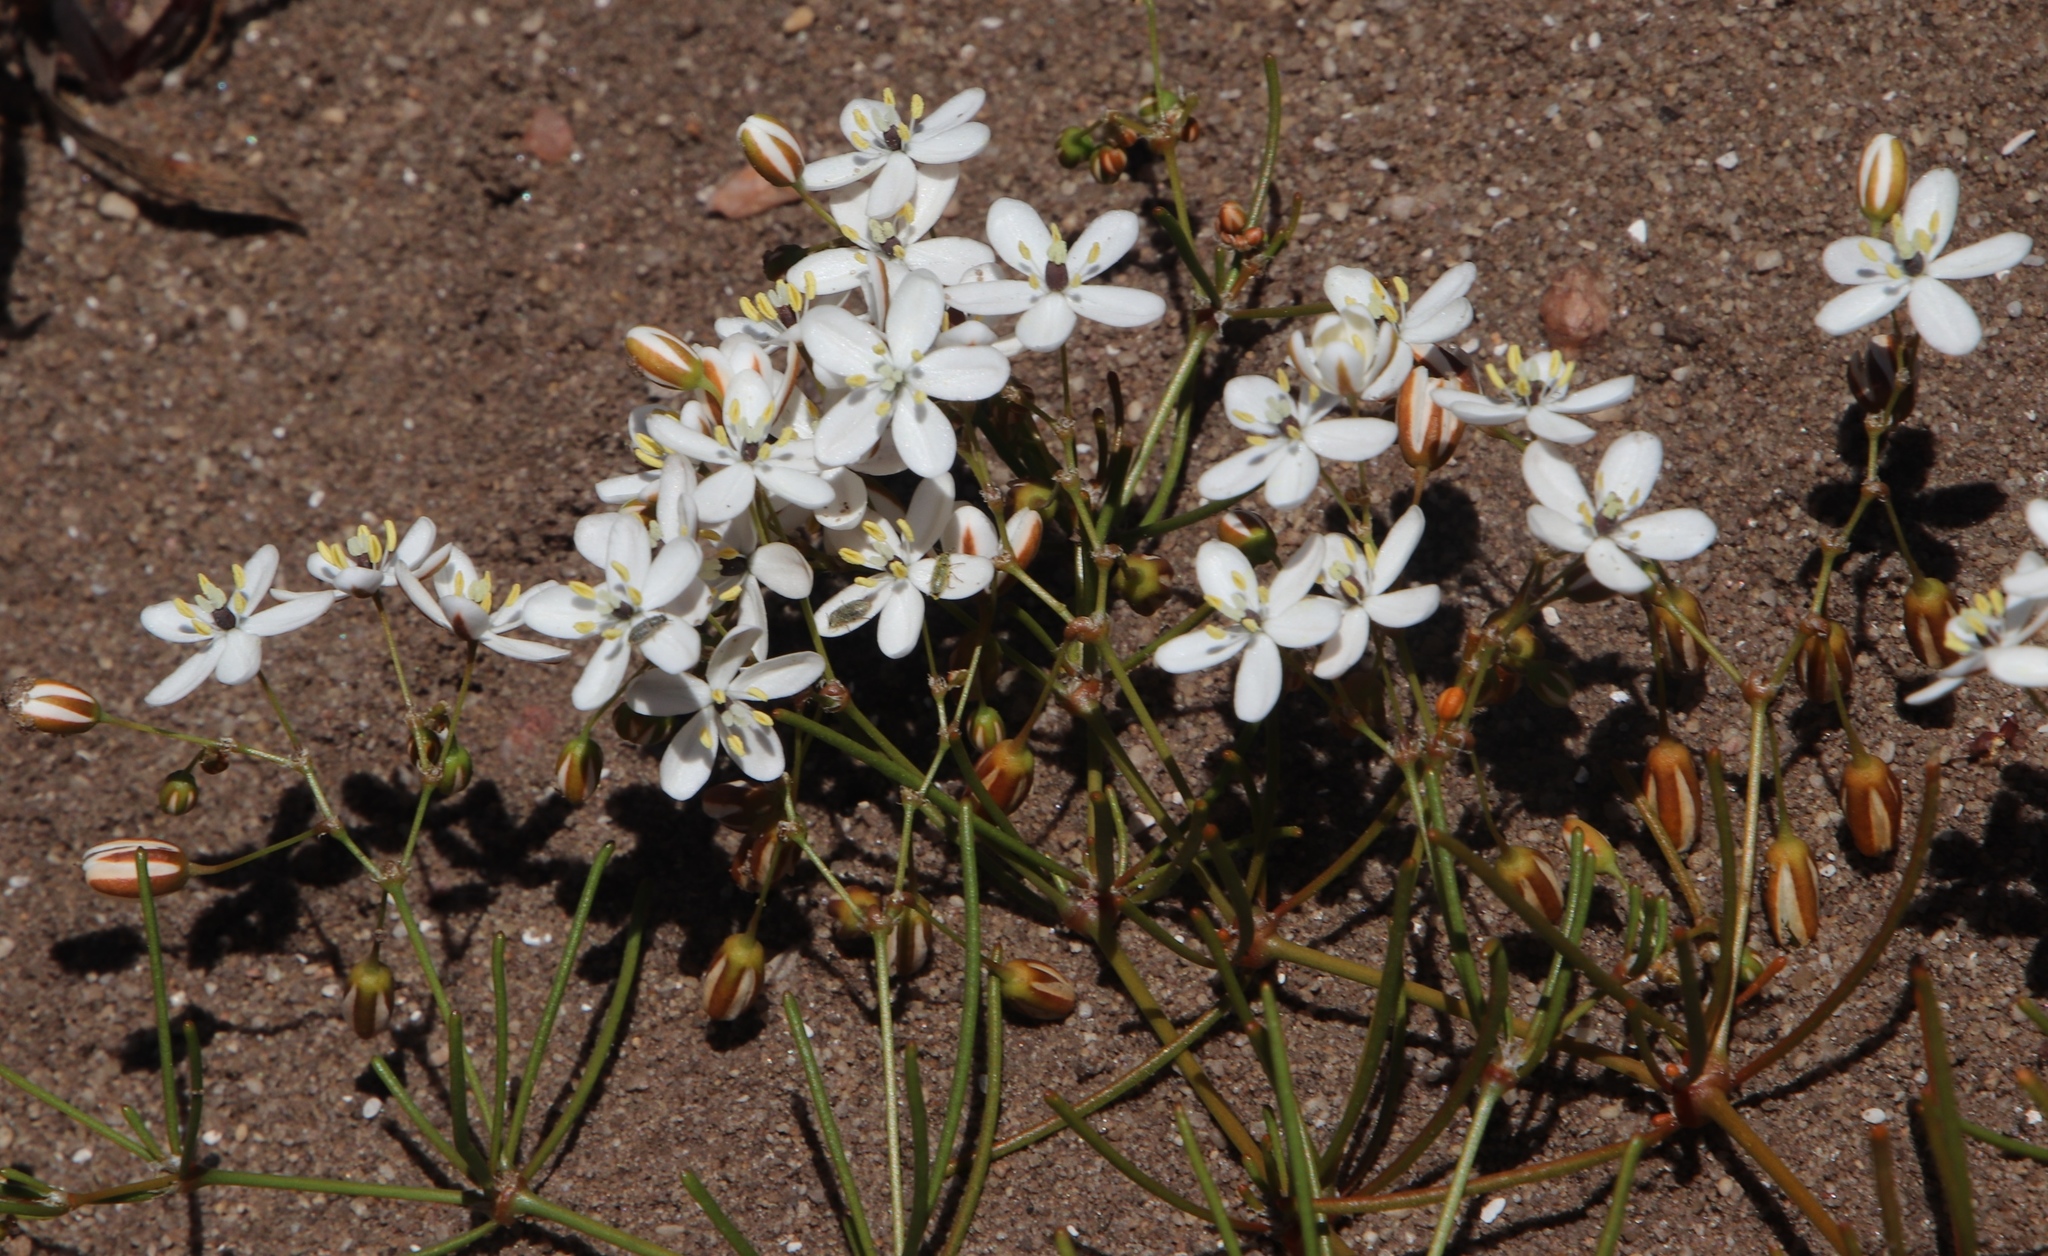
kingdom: Plantae
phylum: Tracheophyta
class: Magnoliopsida
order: Caryophyllales
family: Molluginaceae
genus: Pharnaceum
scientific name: Pharnaceum lineare
